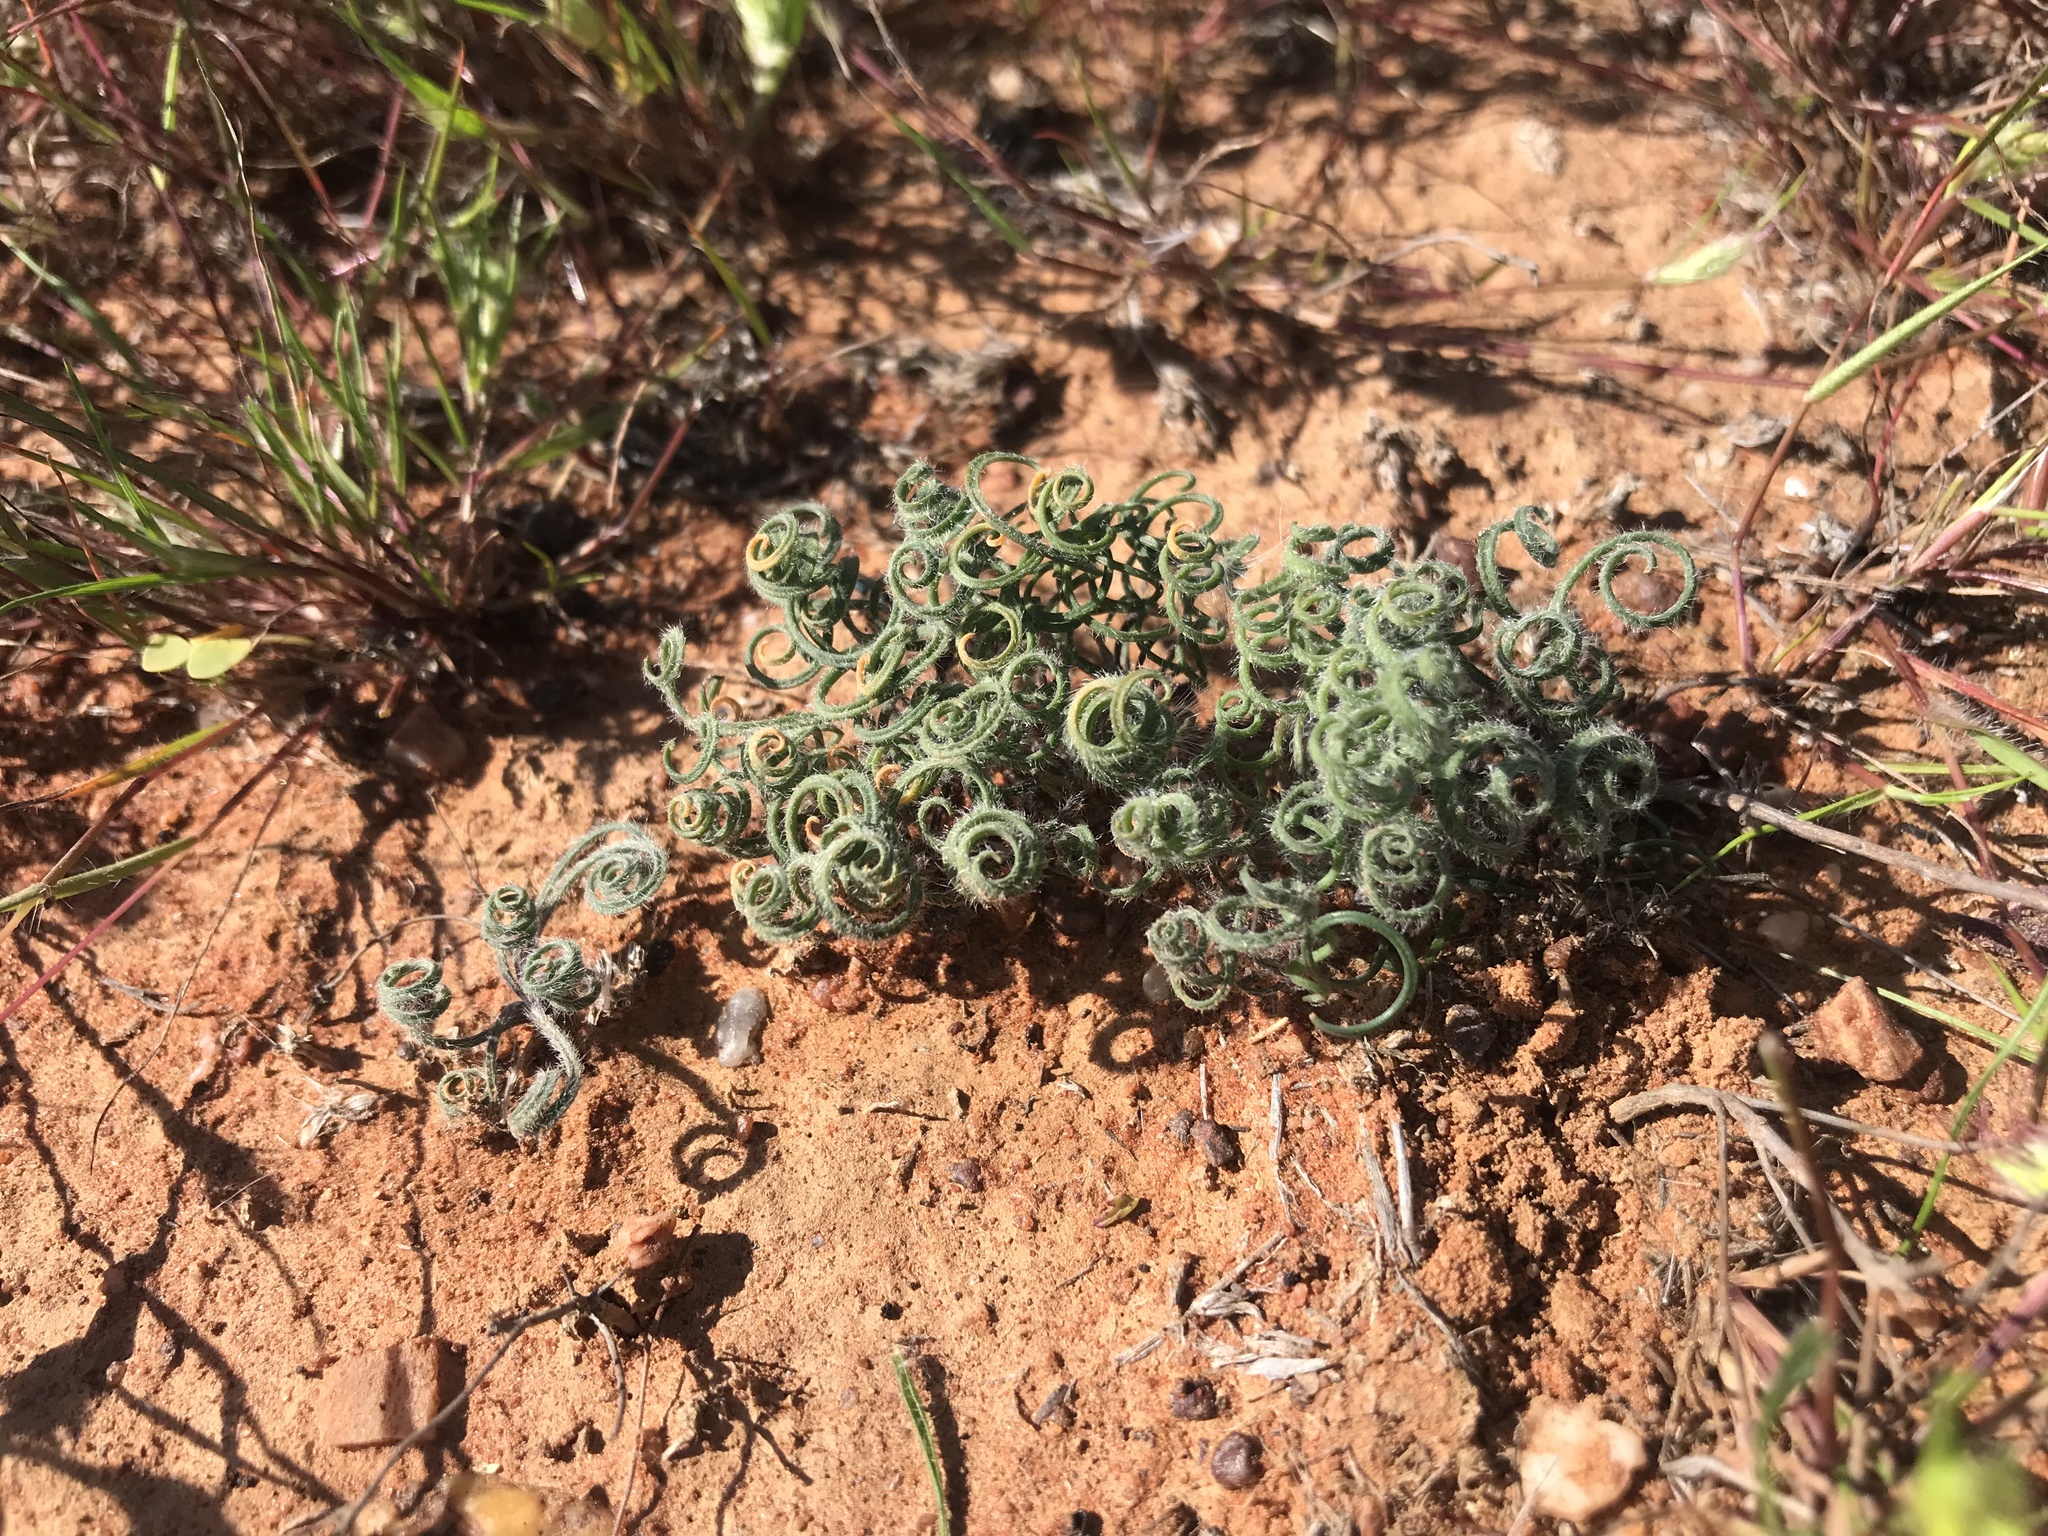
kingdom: Plantae
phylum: Tracheophyta
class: Liliopsida
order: Asparagales
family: Amaryllidaceae
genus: Gethyllis
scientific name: Gethyllis lanuginosa
